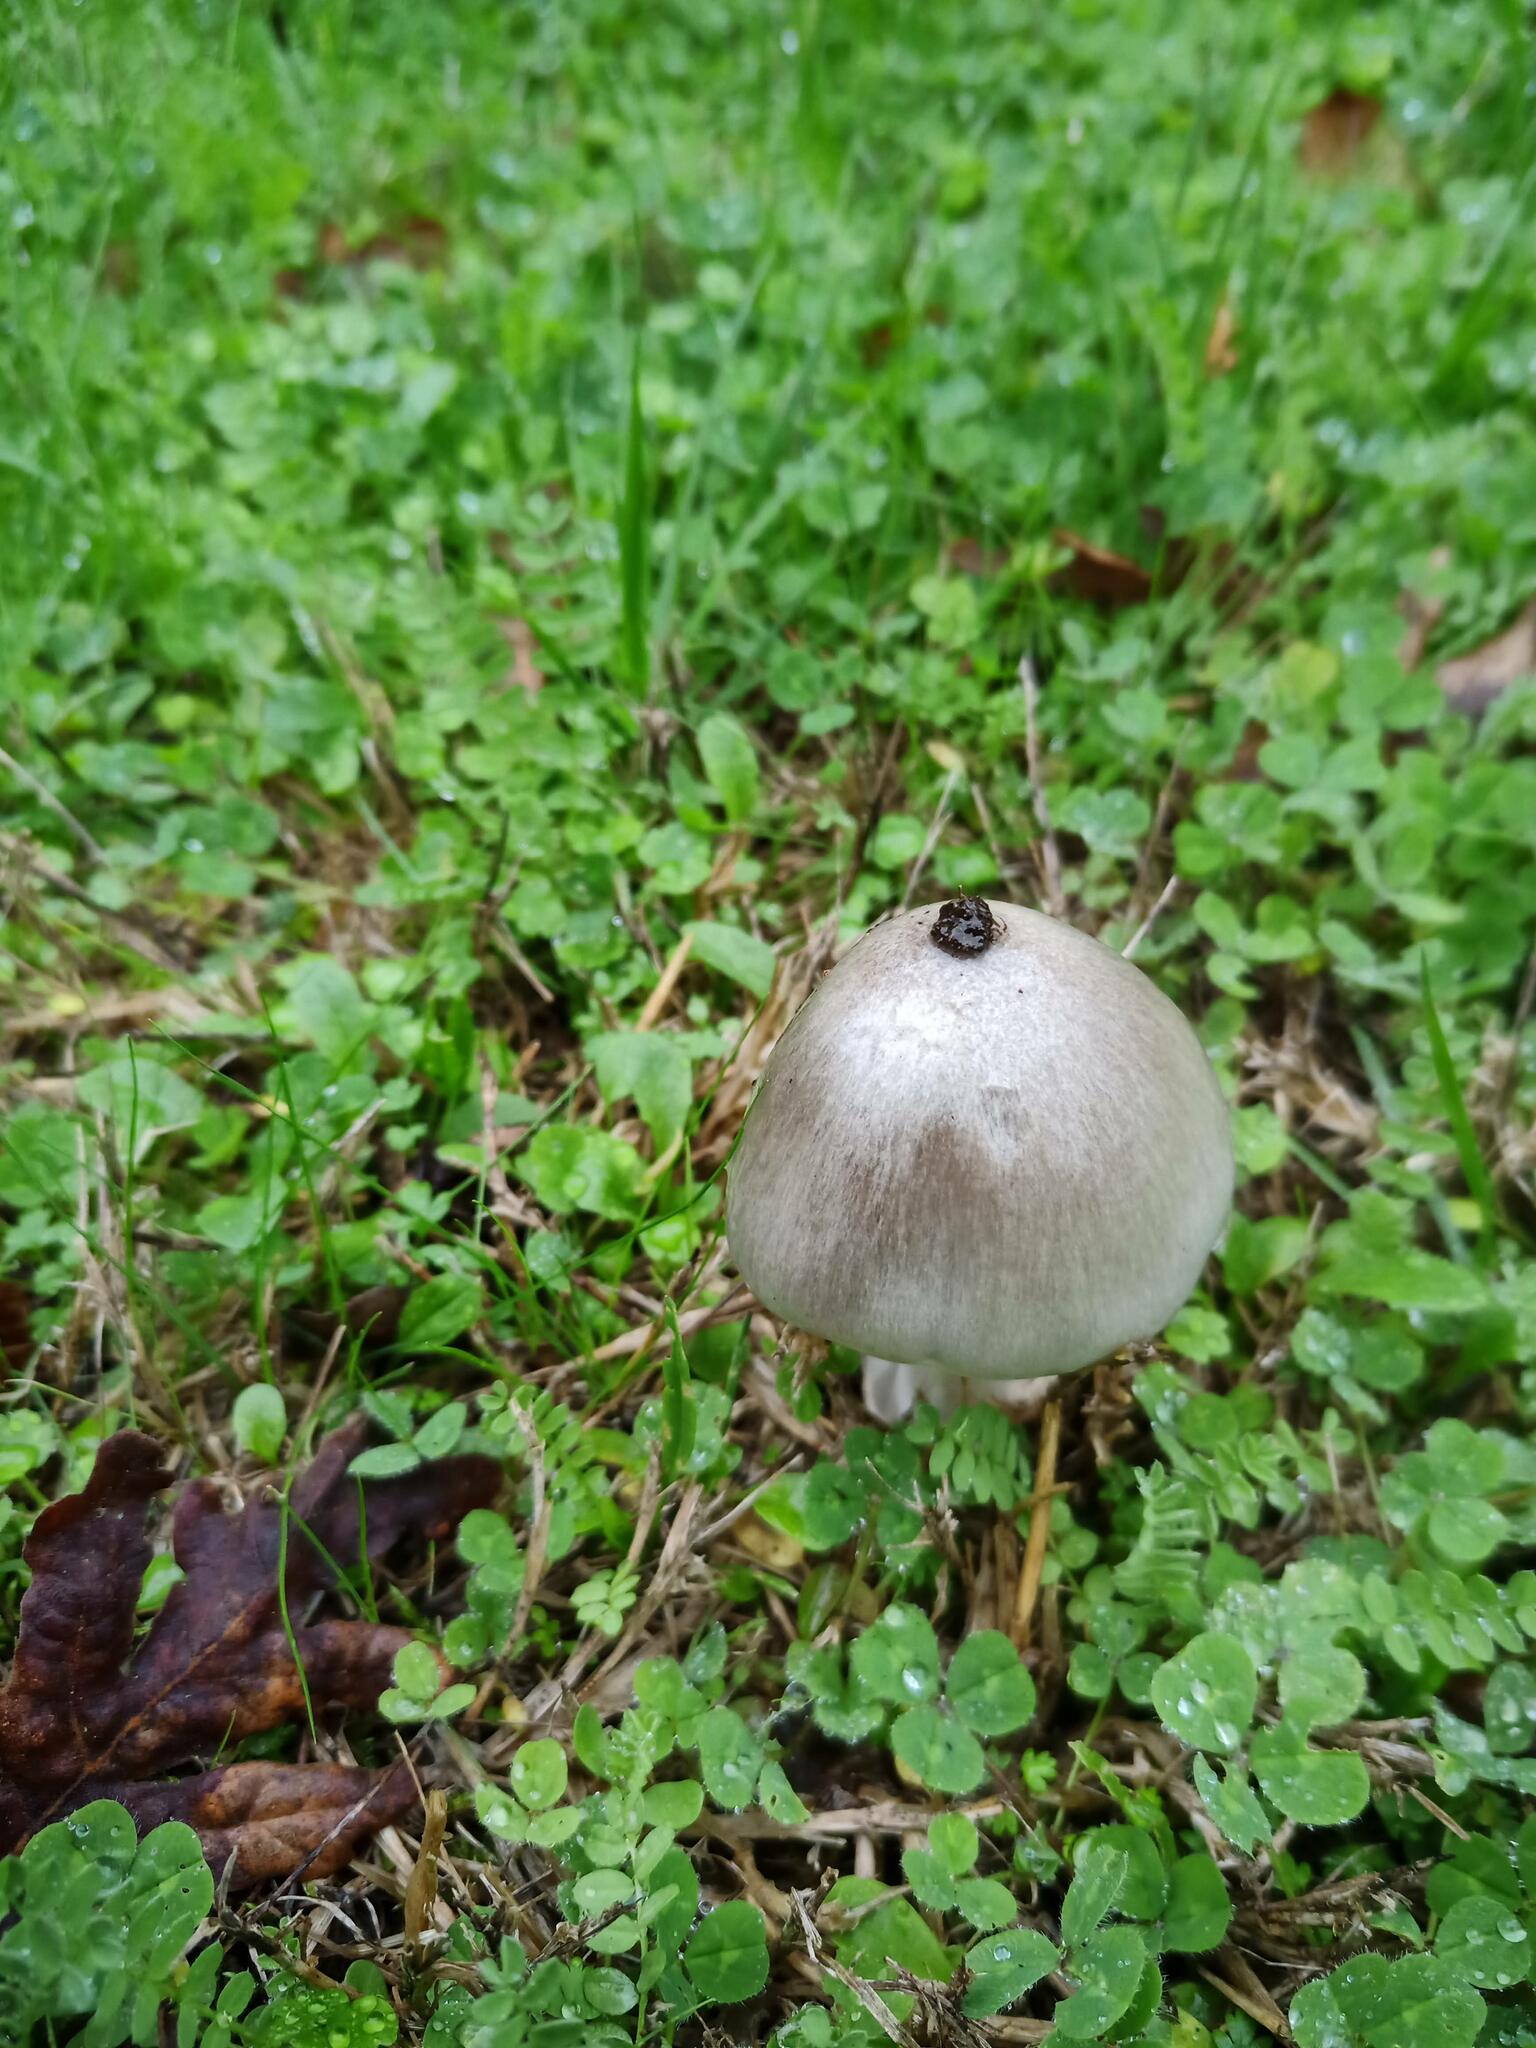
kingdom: Fungi
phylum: Basidiomycota
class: Agaricomycetes
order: Agaricales
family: Pluteaceae
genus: Volvopluteus
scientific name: Volvopluteus gloiocephalus
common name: Stubble rosegill
